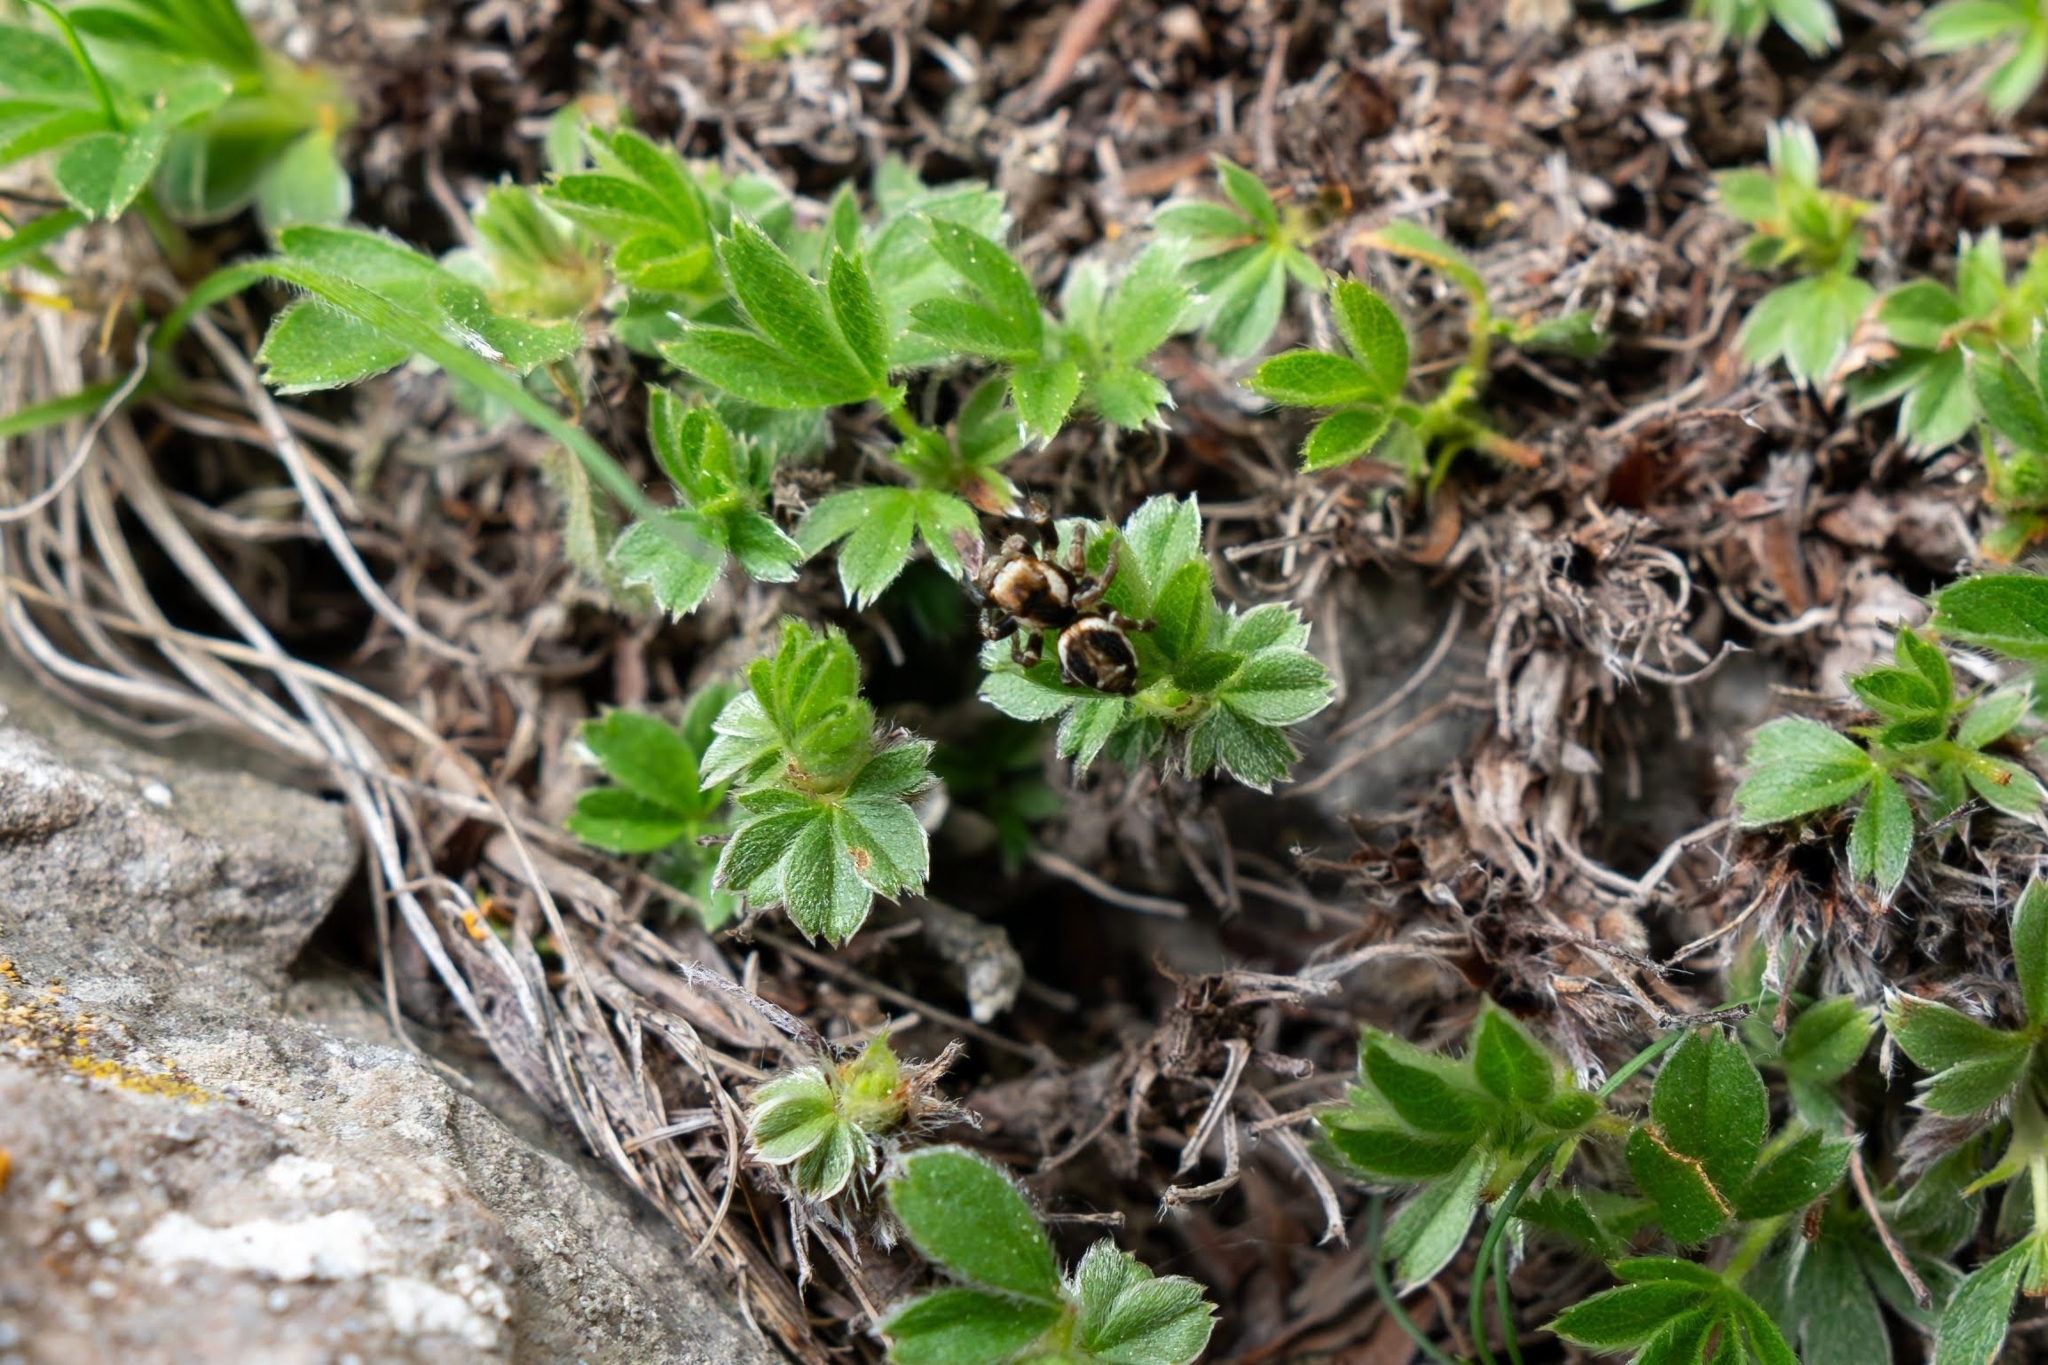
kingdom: Animalia
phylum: Arthropoda
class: Arachnida
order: Araneae
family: Salticidae
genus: Evarcha
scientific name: Evarcha falcata
